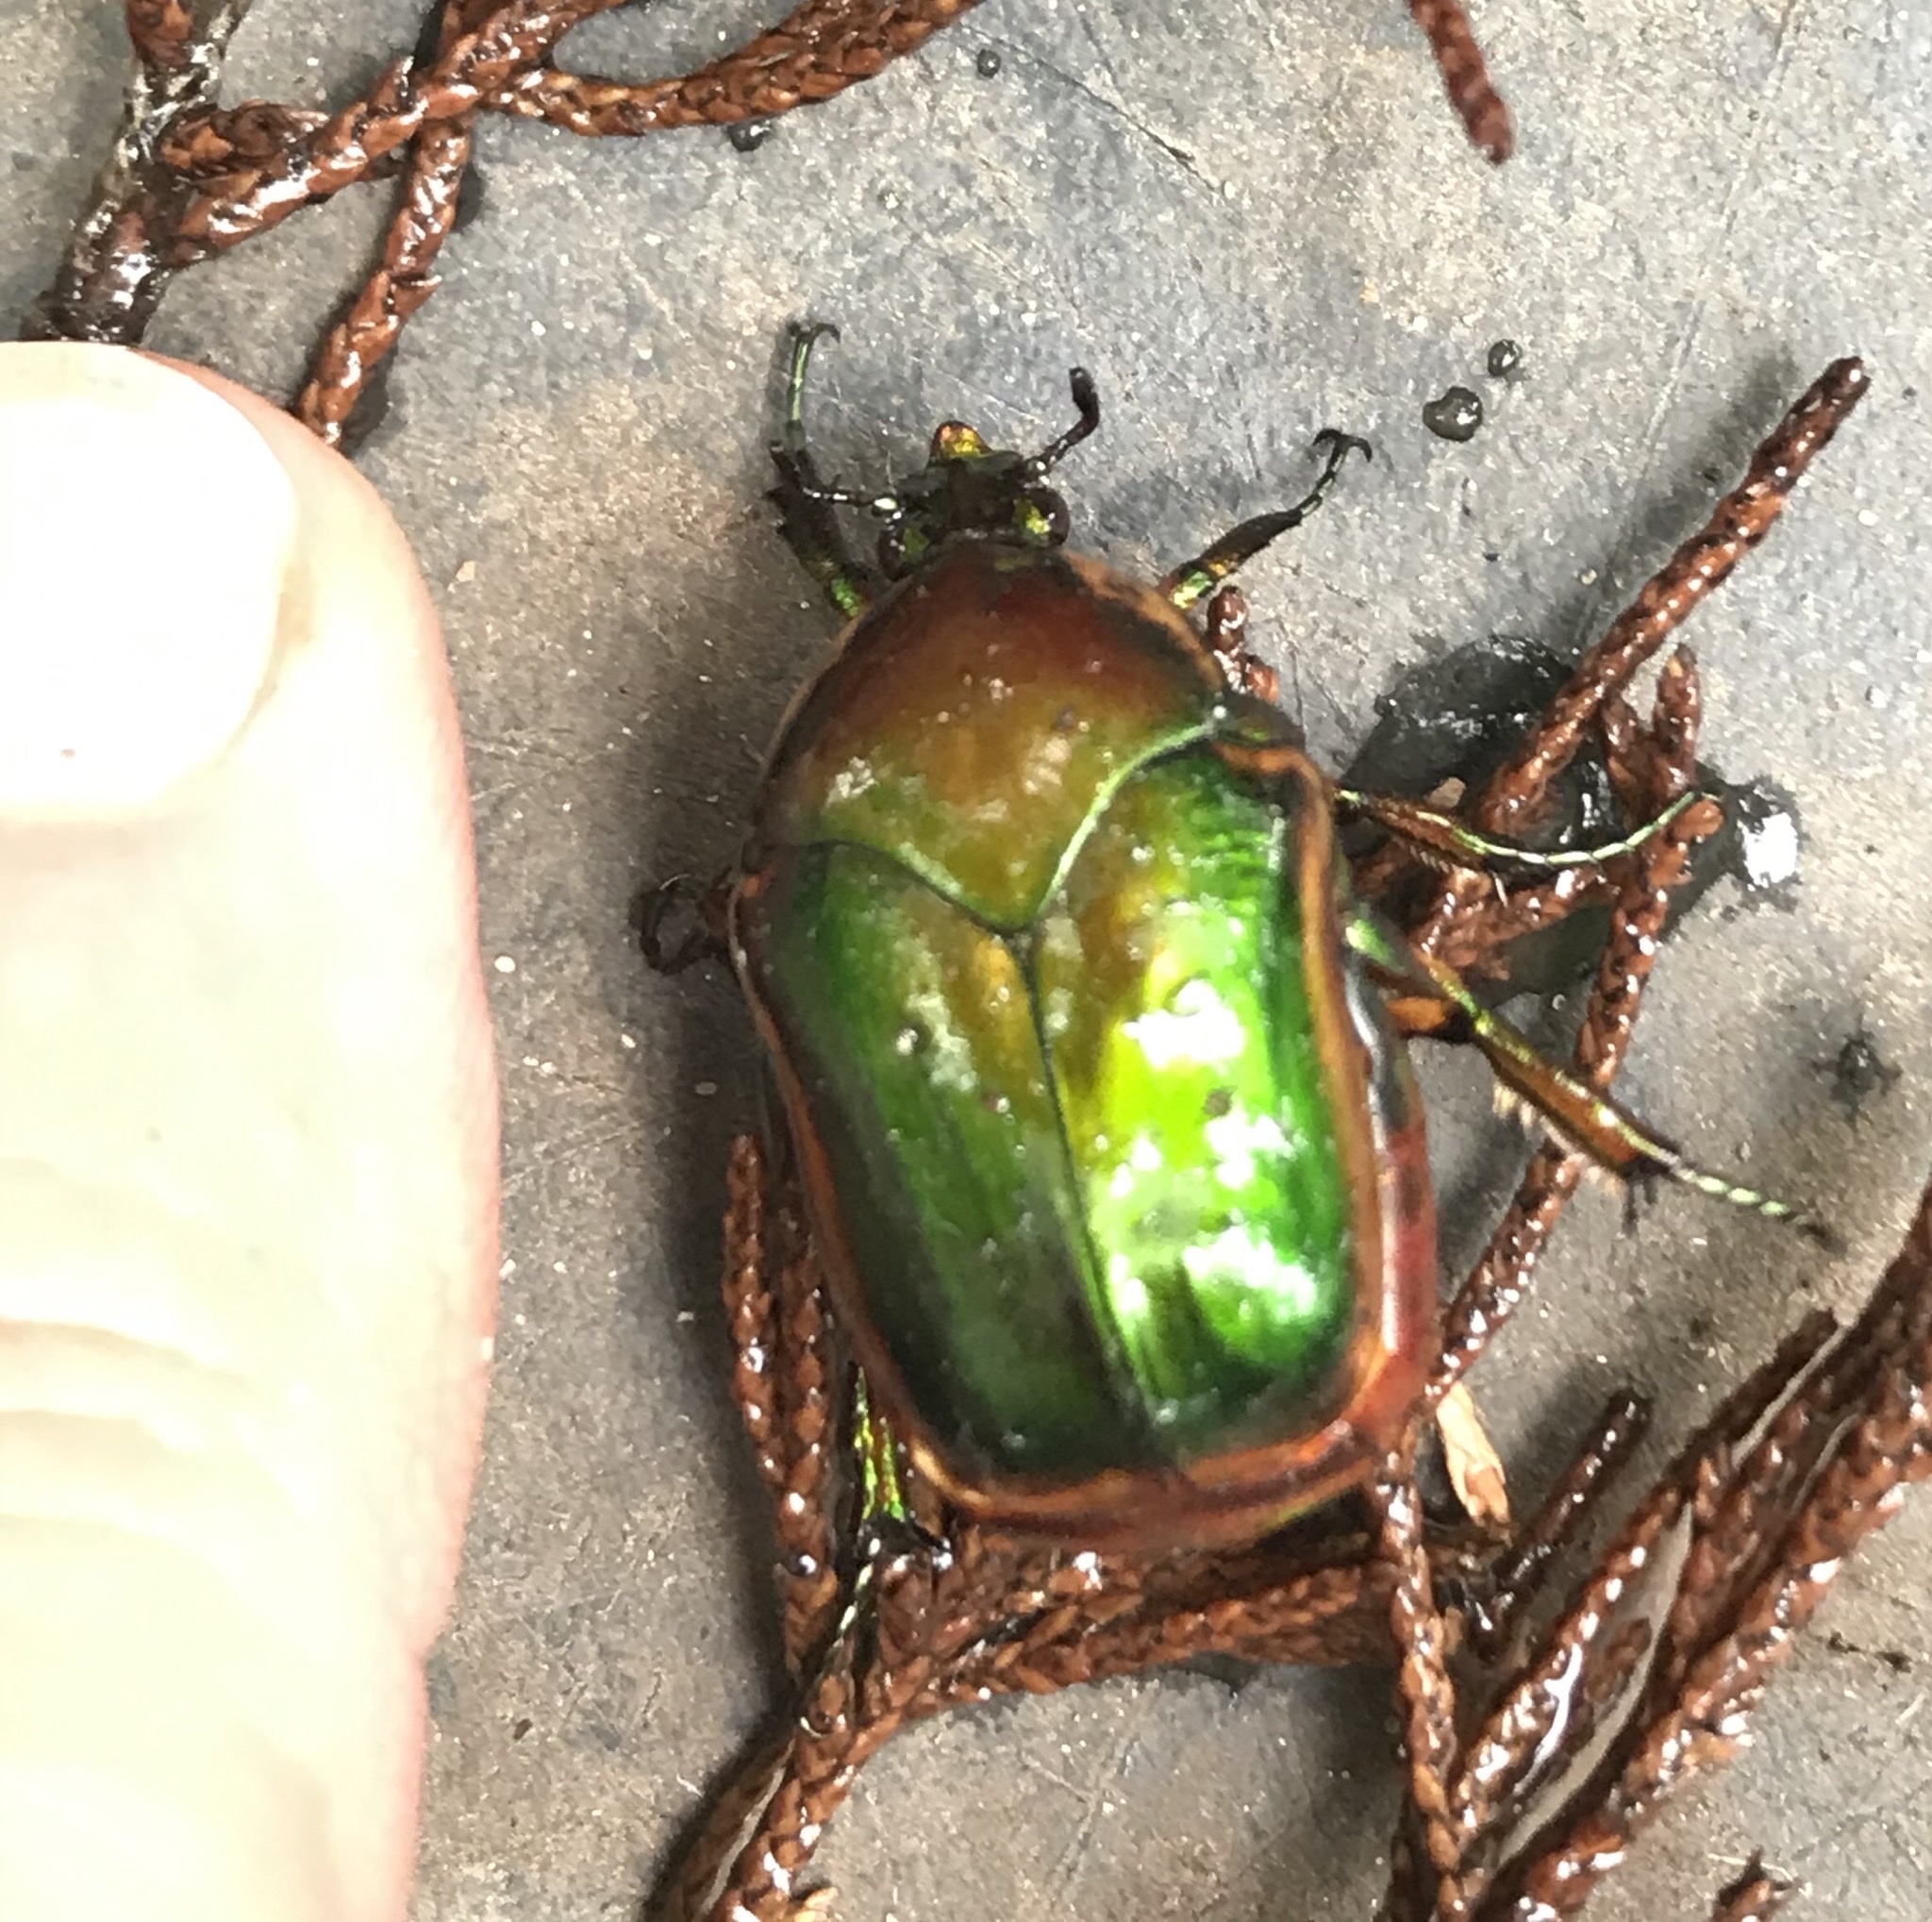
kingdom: Animalia
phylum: Arthropoda
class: Insecta
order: Coleoptera
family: Scarabaeidae
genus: Cotinis
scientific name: Cotinis nitida
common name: Common green june beetle
